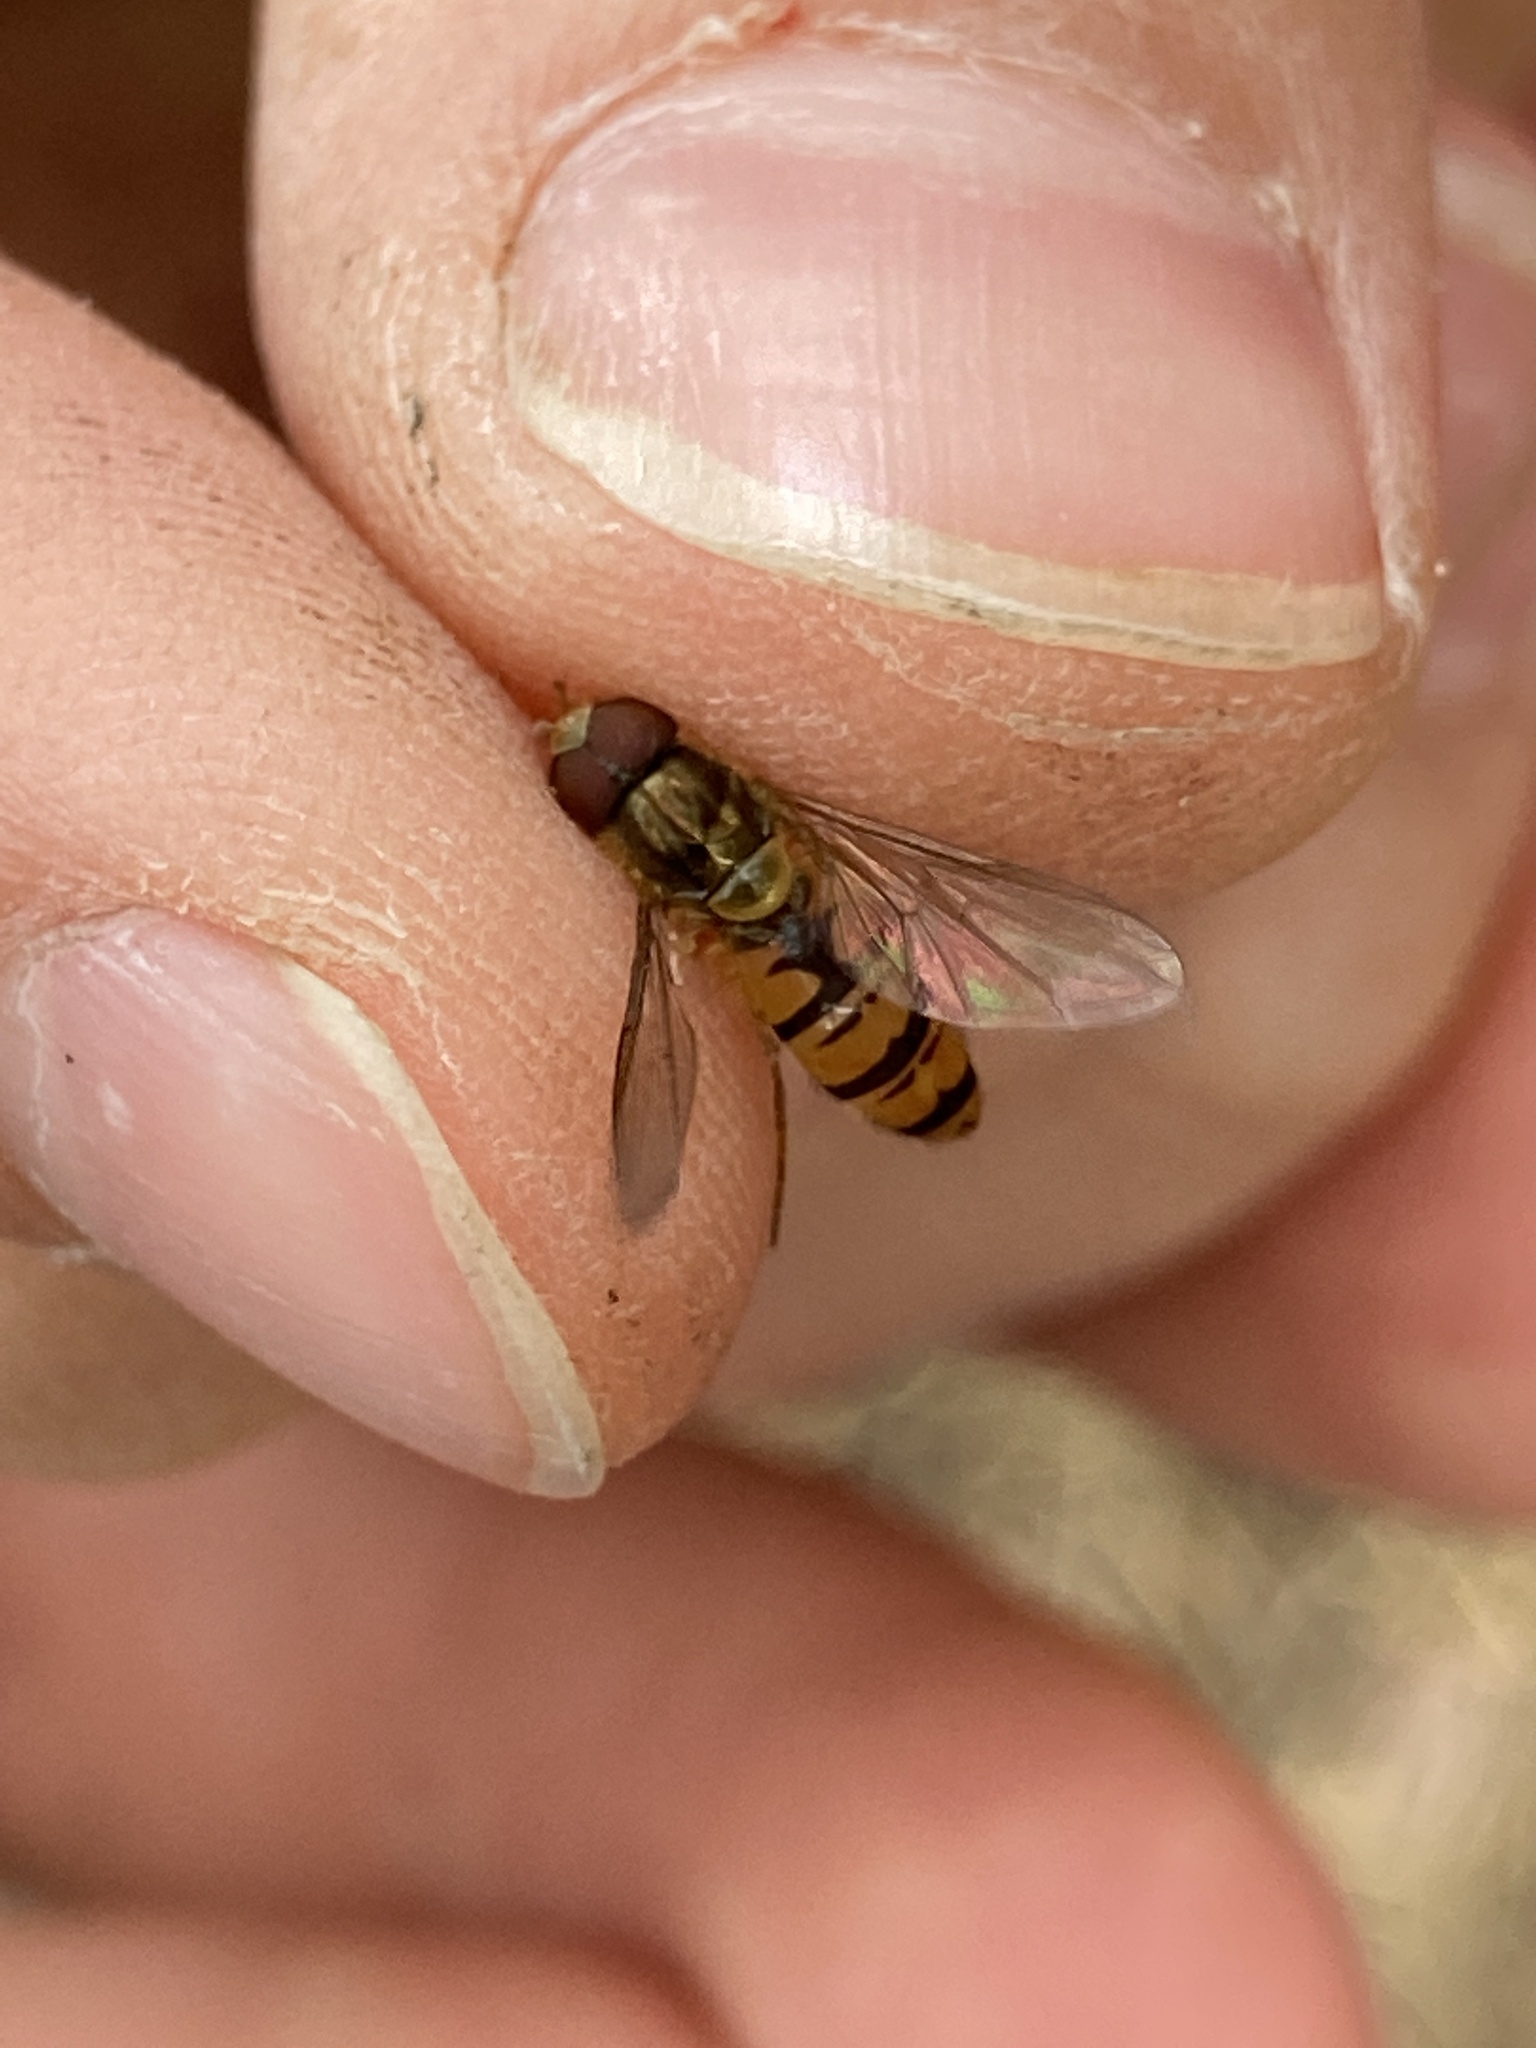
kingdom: Animalia
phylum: Arthropoda
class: Insecta
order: Diptera
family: Syrphidae
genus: Episyrphus
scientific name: Episyrphus balteatus
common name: Marmalade hoverfly
